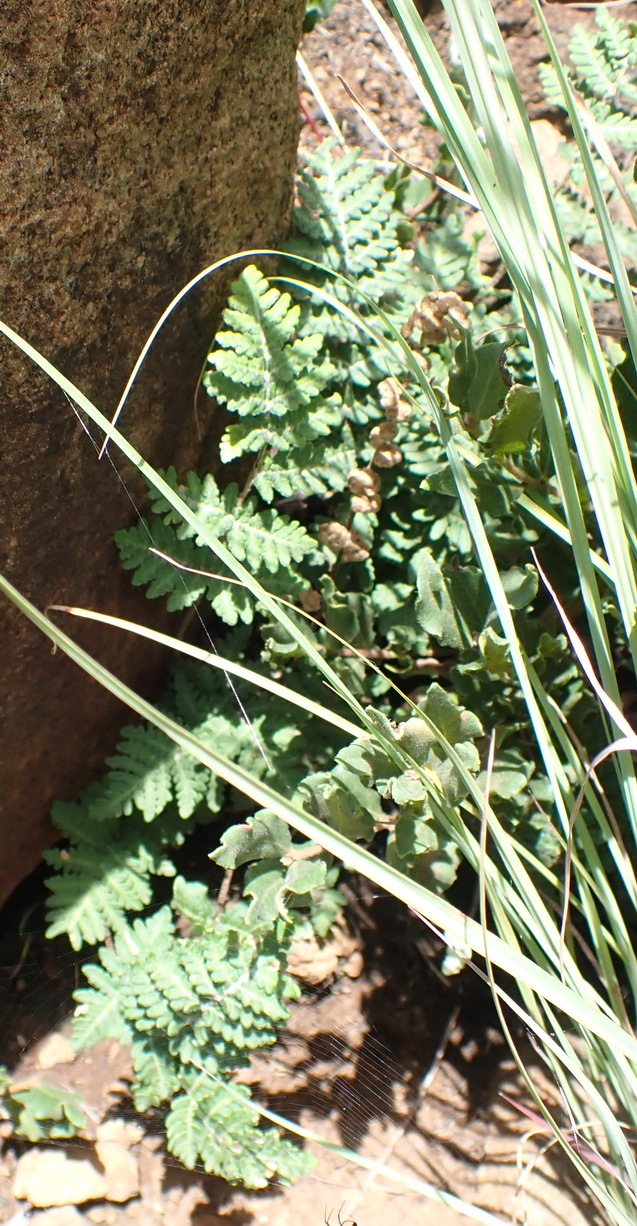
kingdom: Plantae
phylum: Tracheophyta
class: Polypodiopsida
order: Polypodiales
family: Pteridaceae
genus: Cheilanthes
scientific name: Cheilanthes eckloniana
